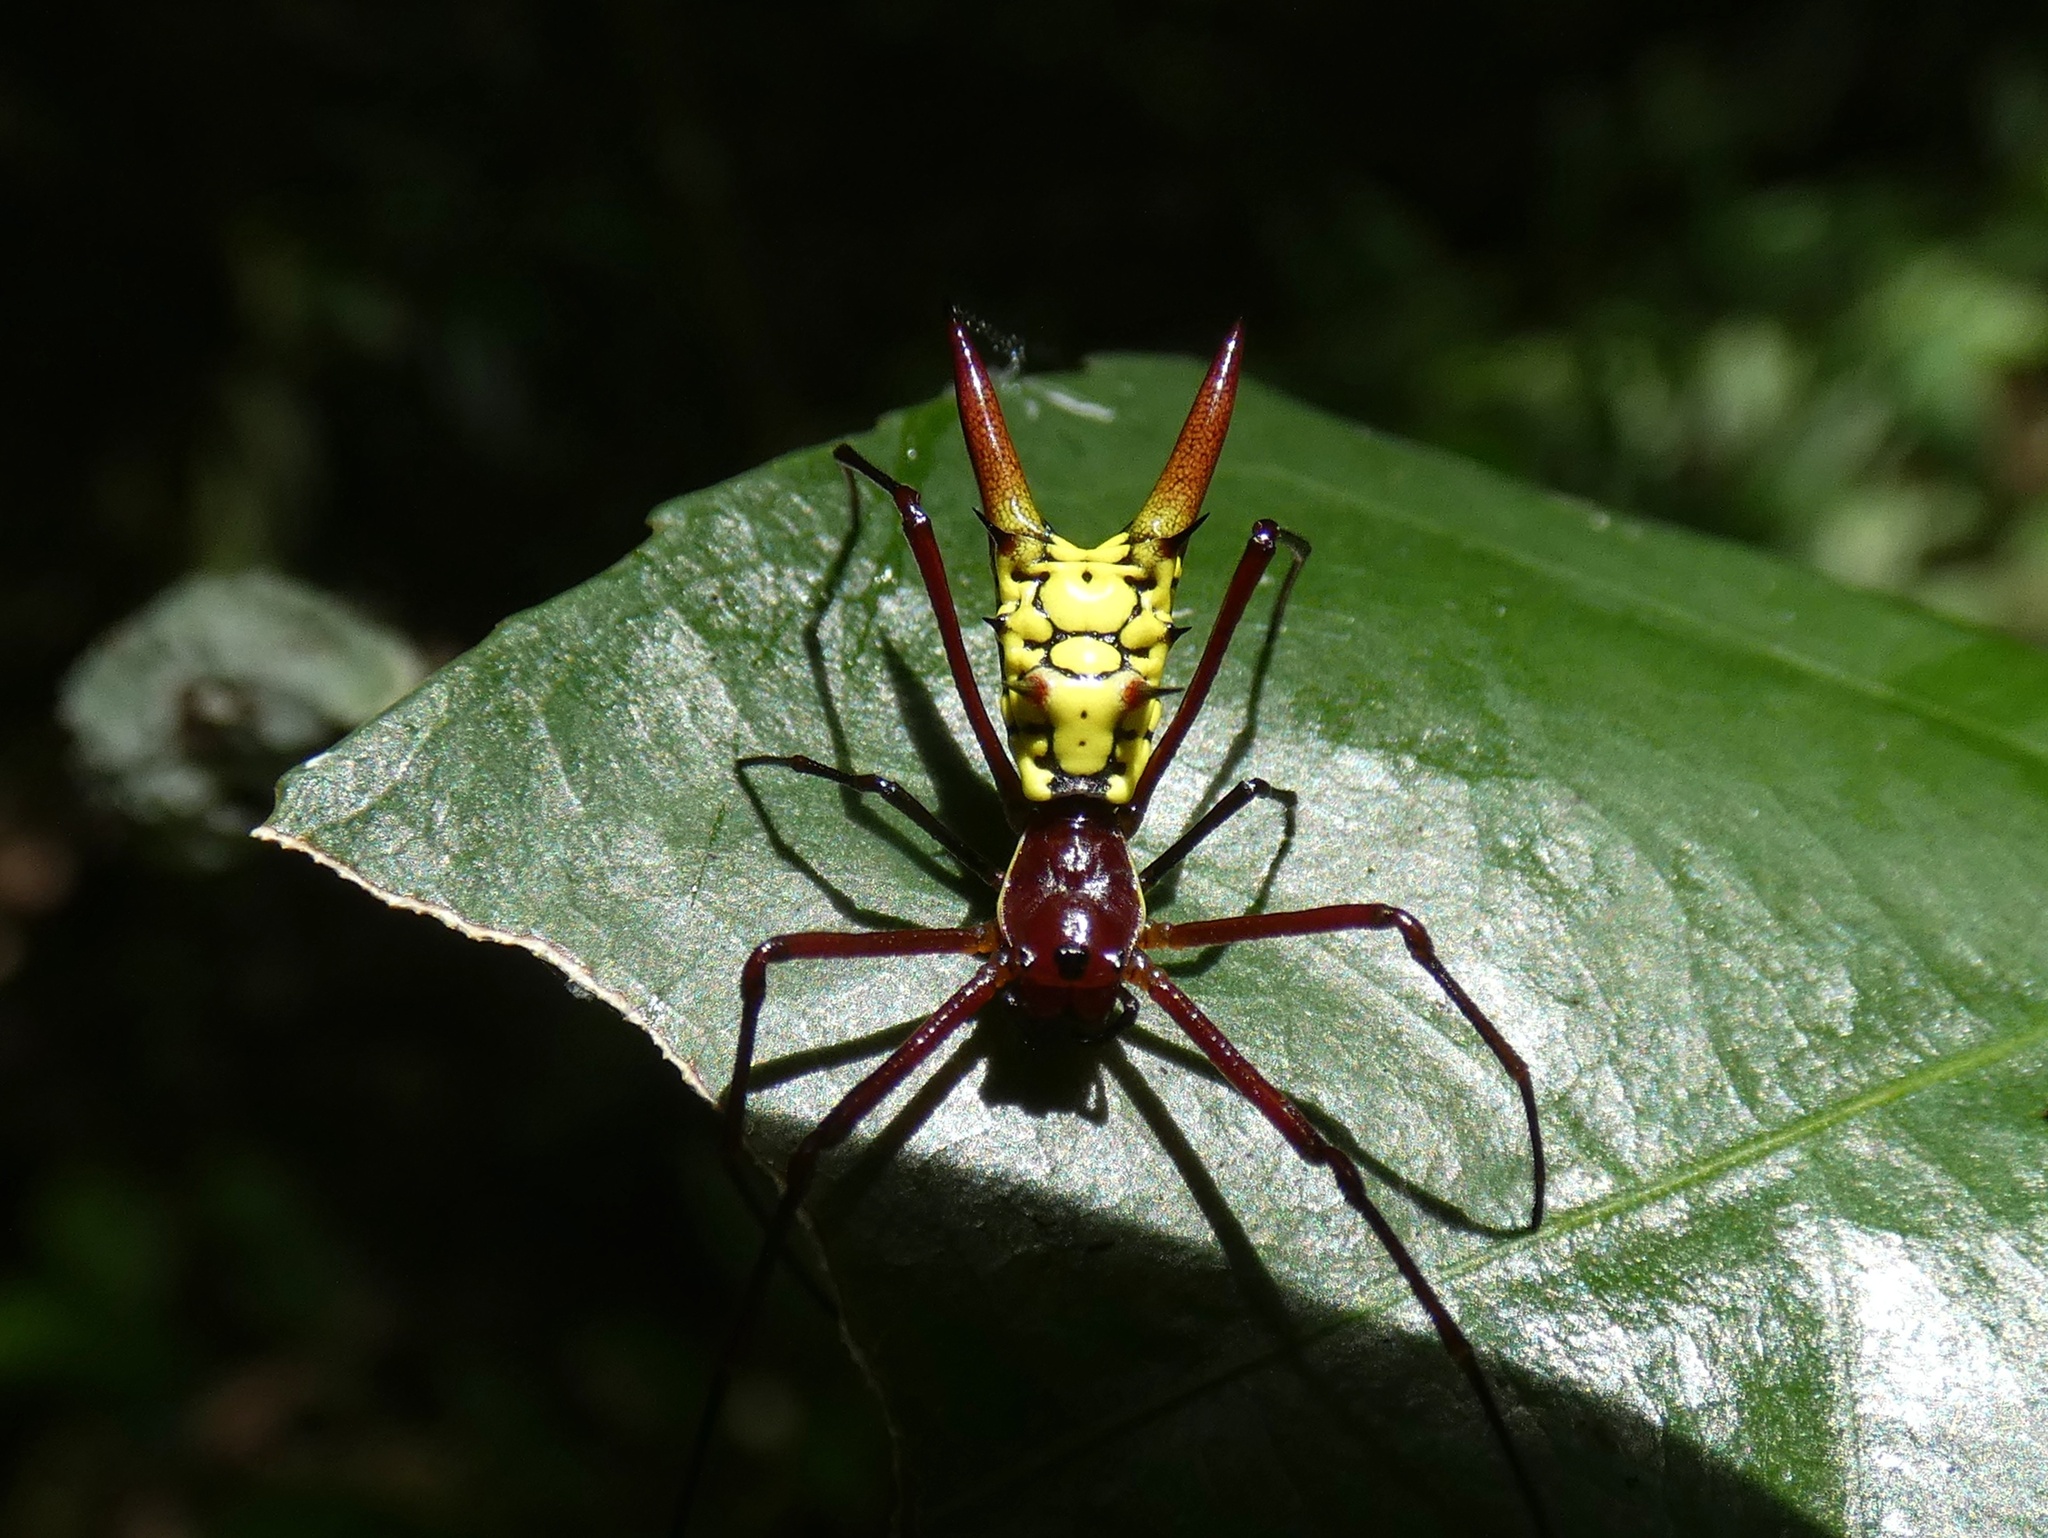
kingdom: Animalia
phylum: Arthropoda
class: Arachnida
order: Araneae
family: Araneidae
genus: Micrathena
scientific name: Micrathena donaldi
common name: Orb weavers
